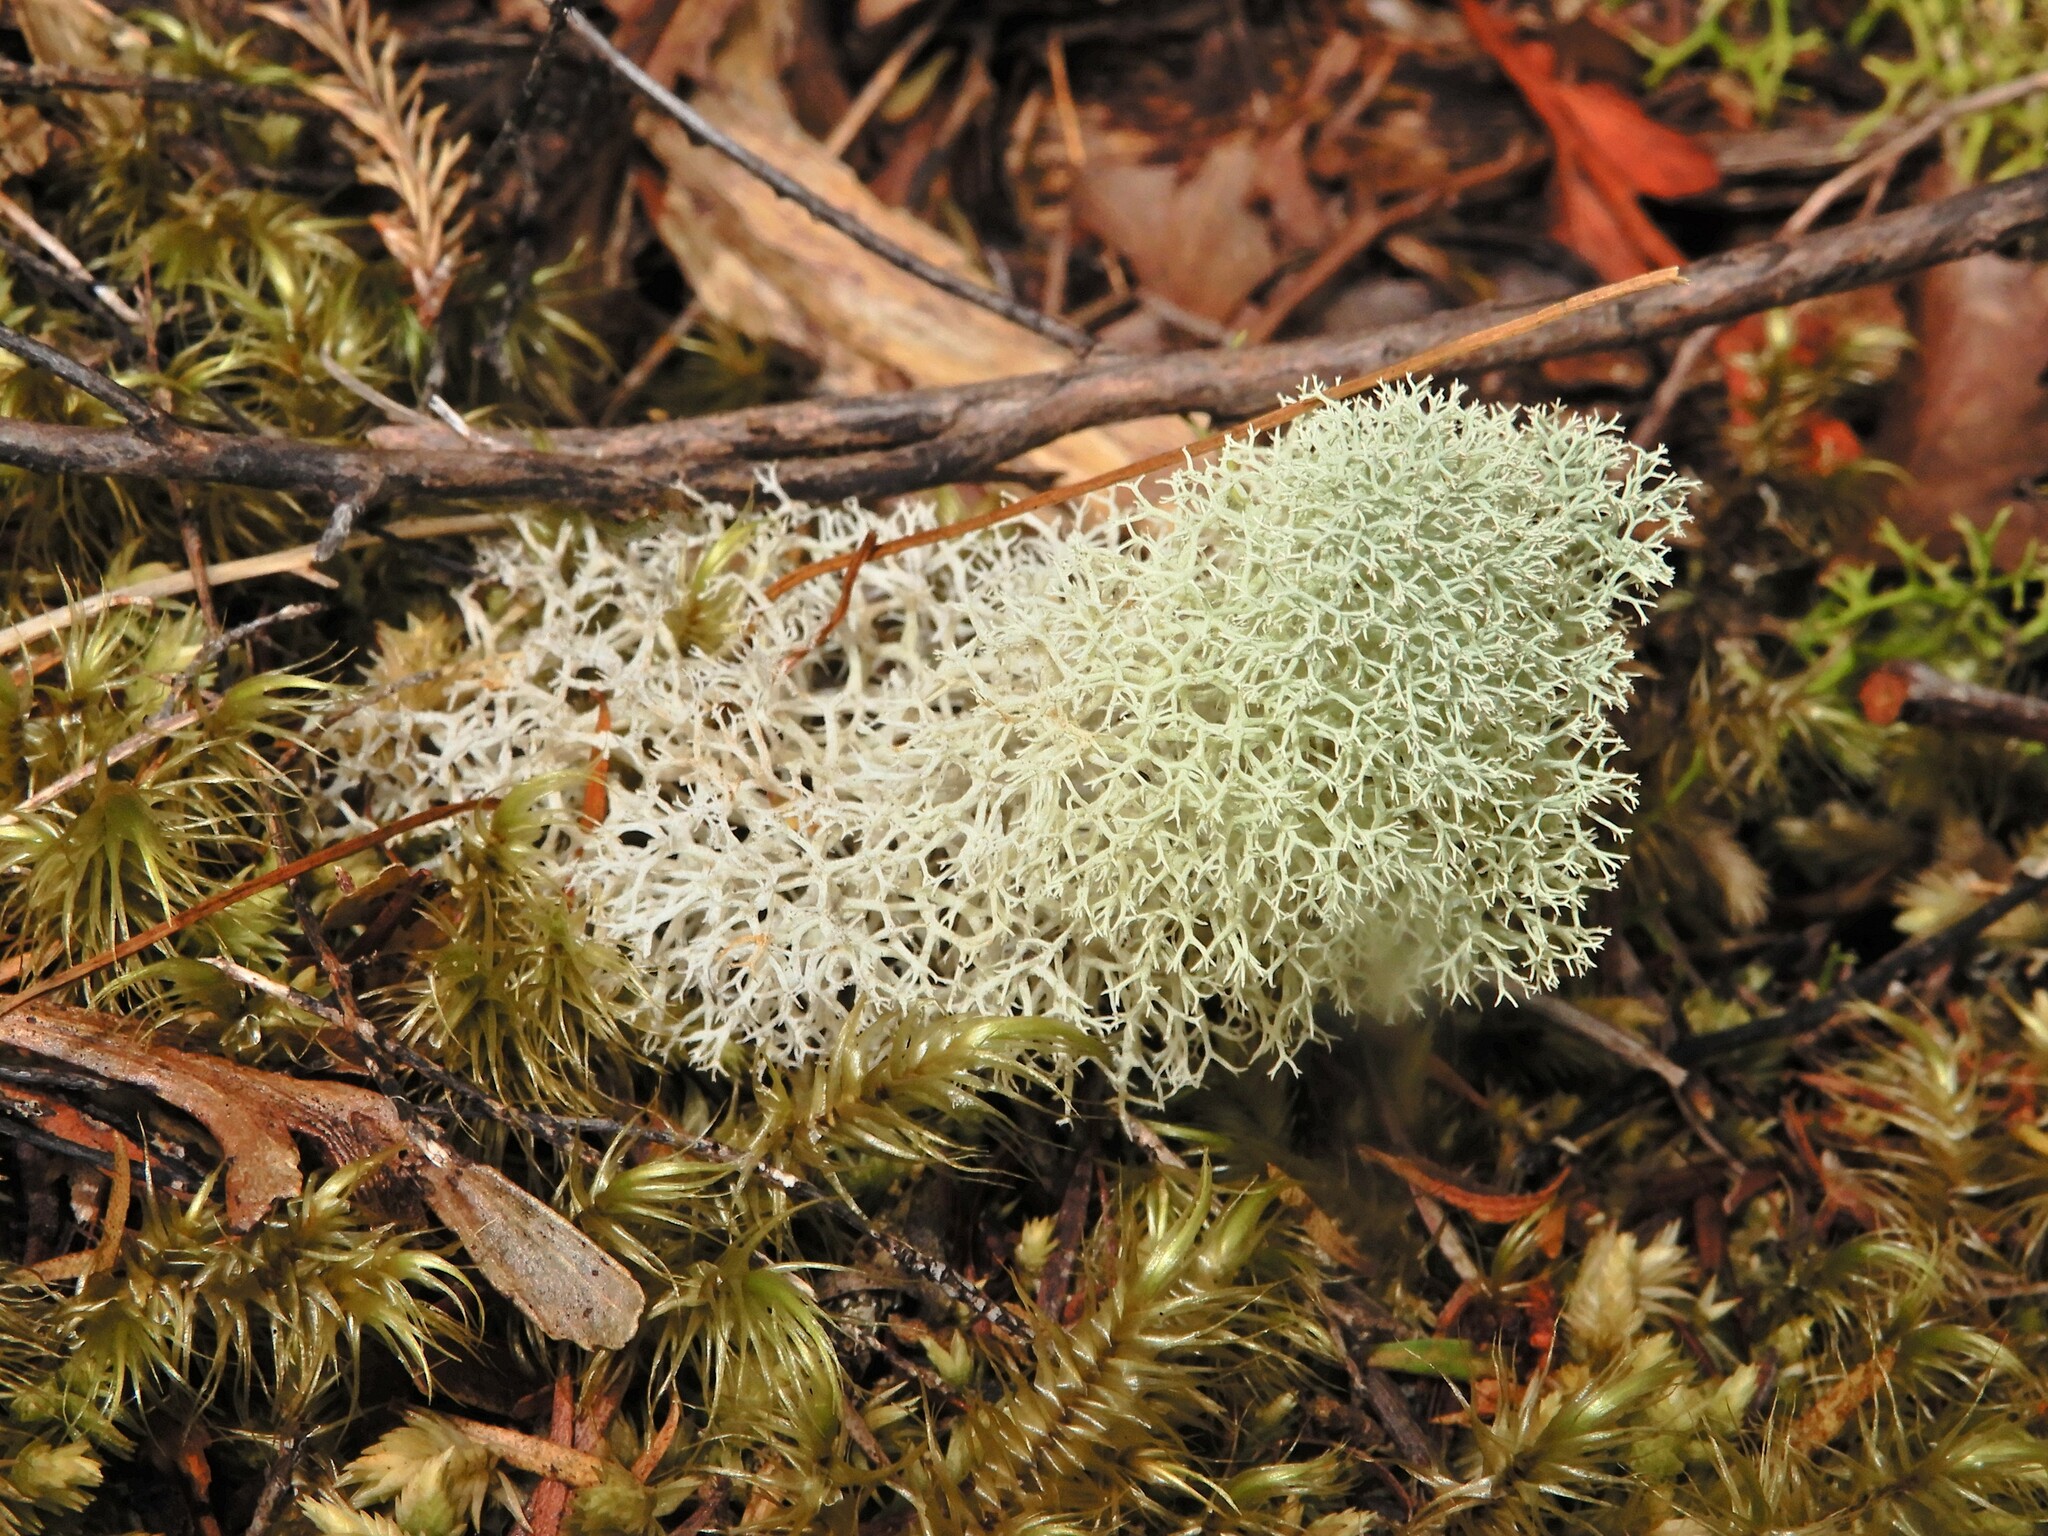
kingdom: Fungi
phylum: Ascomycota
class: Lecanoromycetes
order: Lecanorales
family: Cladoniaceae
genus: Cladonia
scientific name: Cladonia confusa
